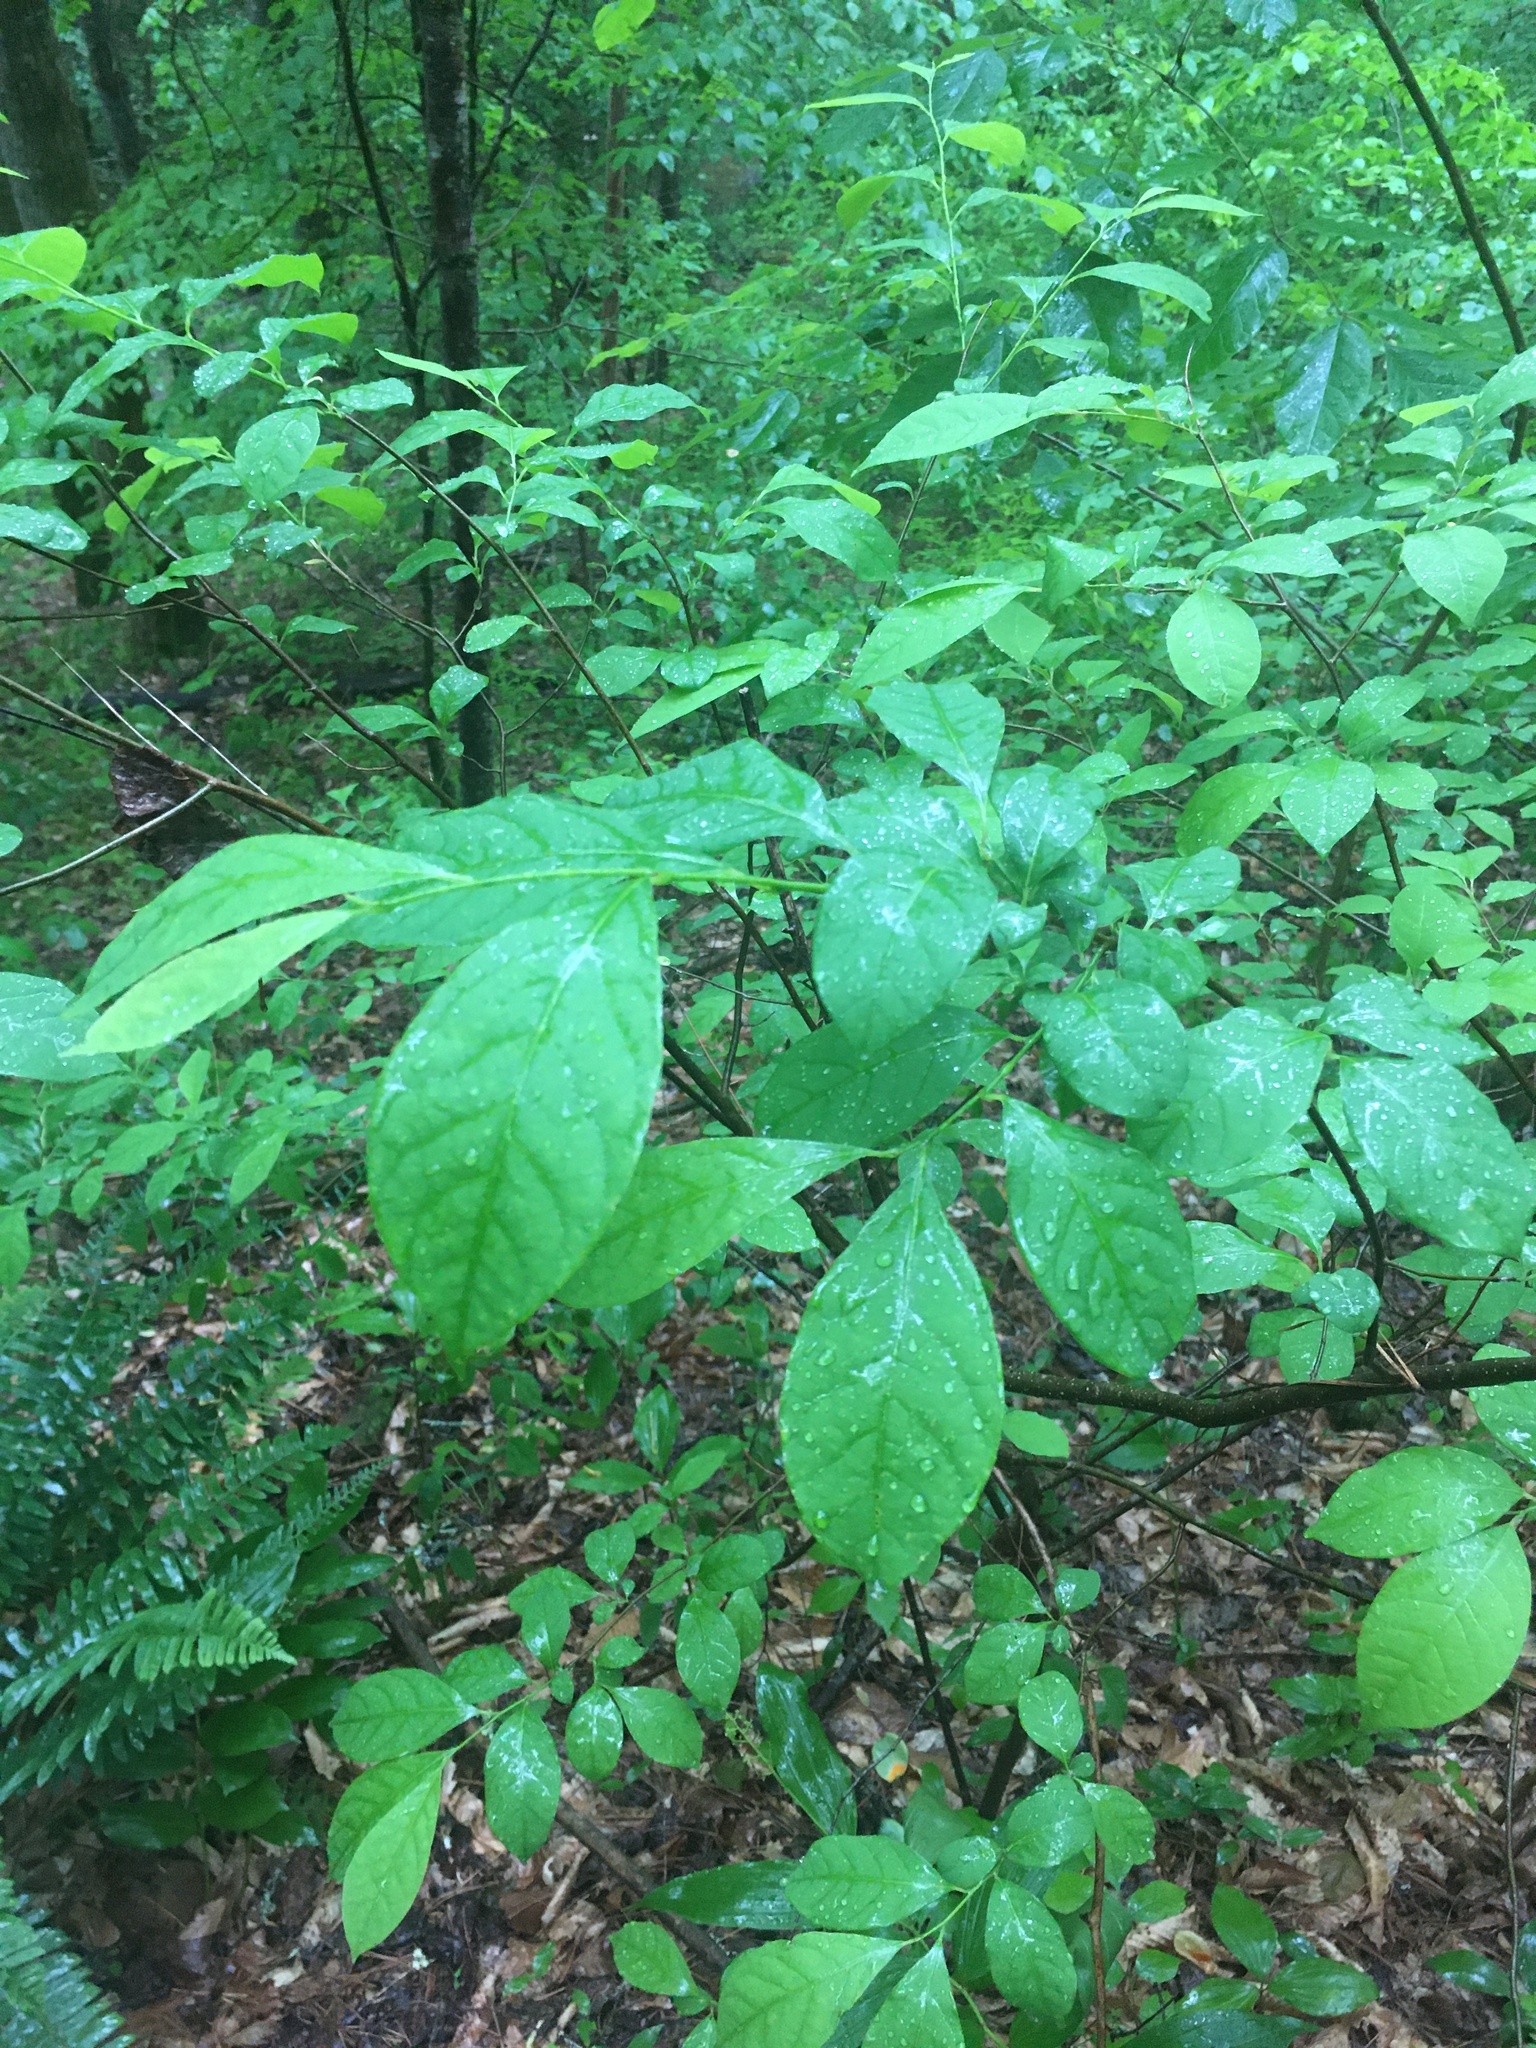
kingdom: Plantae
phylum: Tracheophyta
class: Magnoliopsida
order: Laurales
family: Lauraceae
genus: Lindera
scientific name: Lindera benzoin
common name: Spicebush
